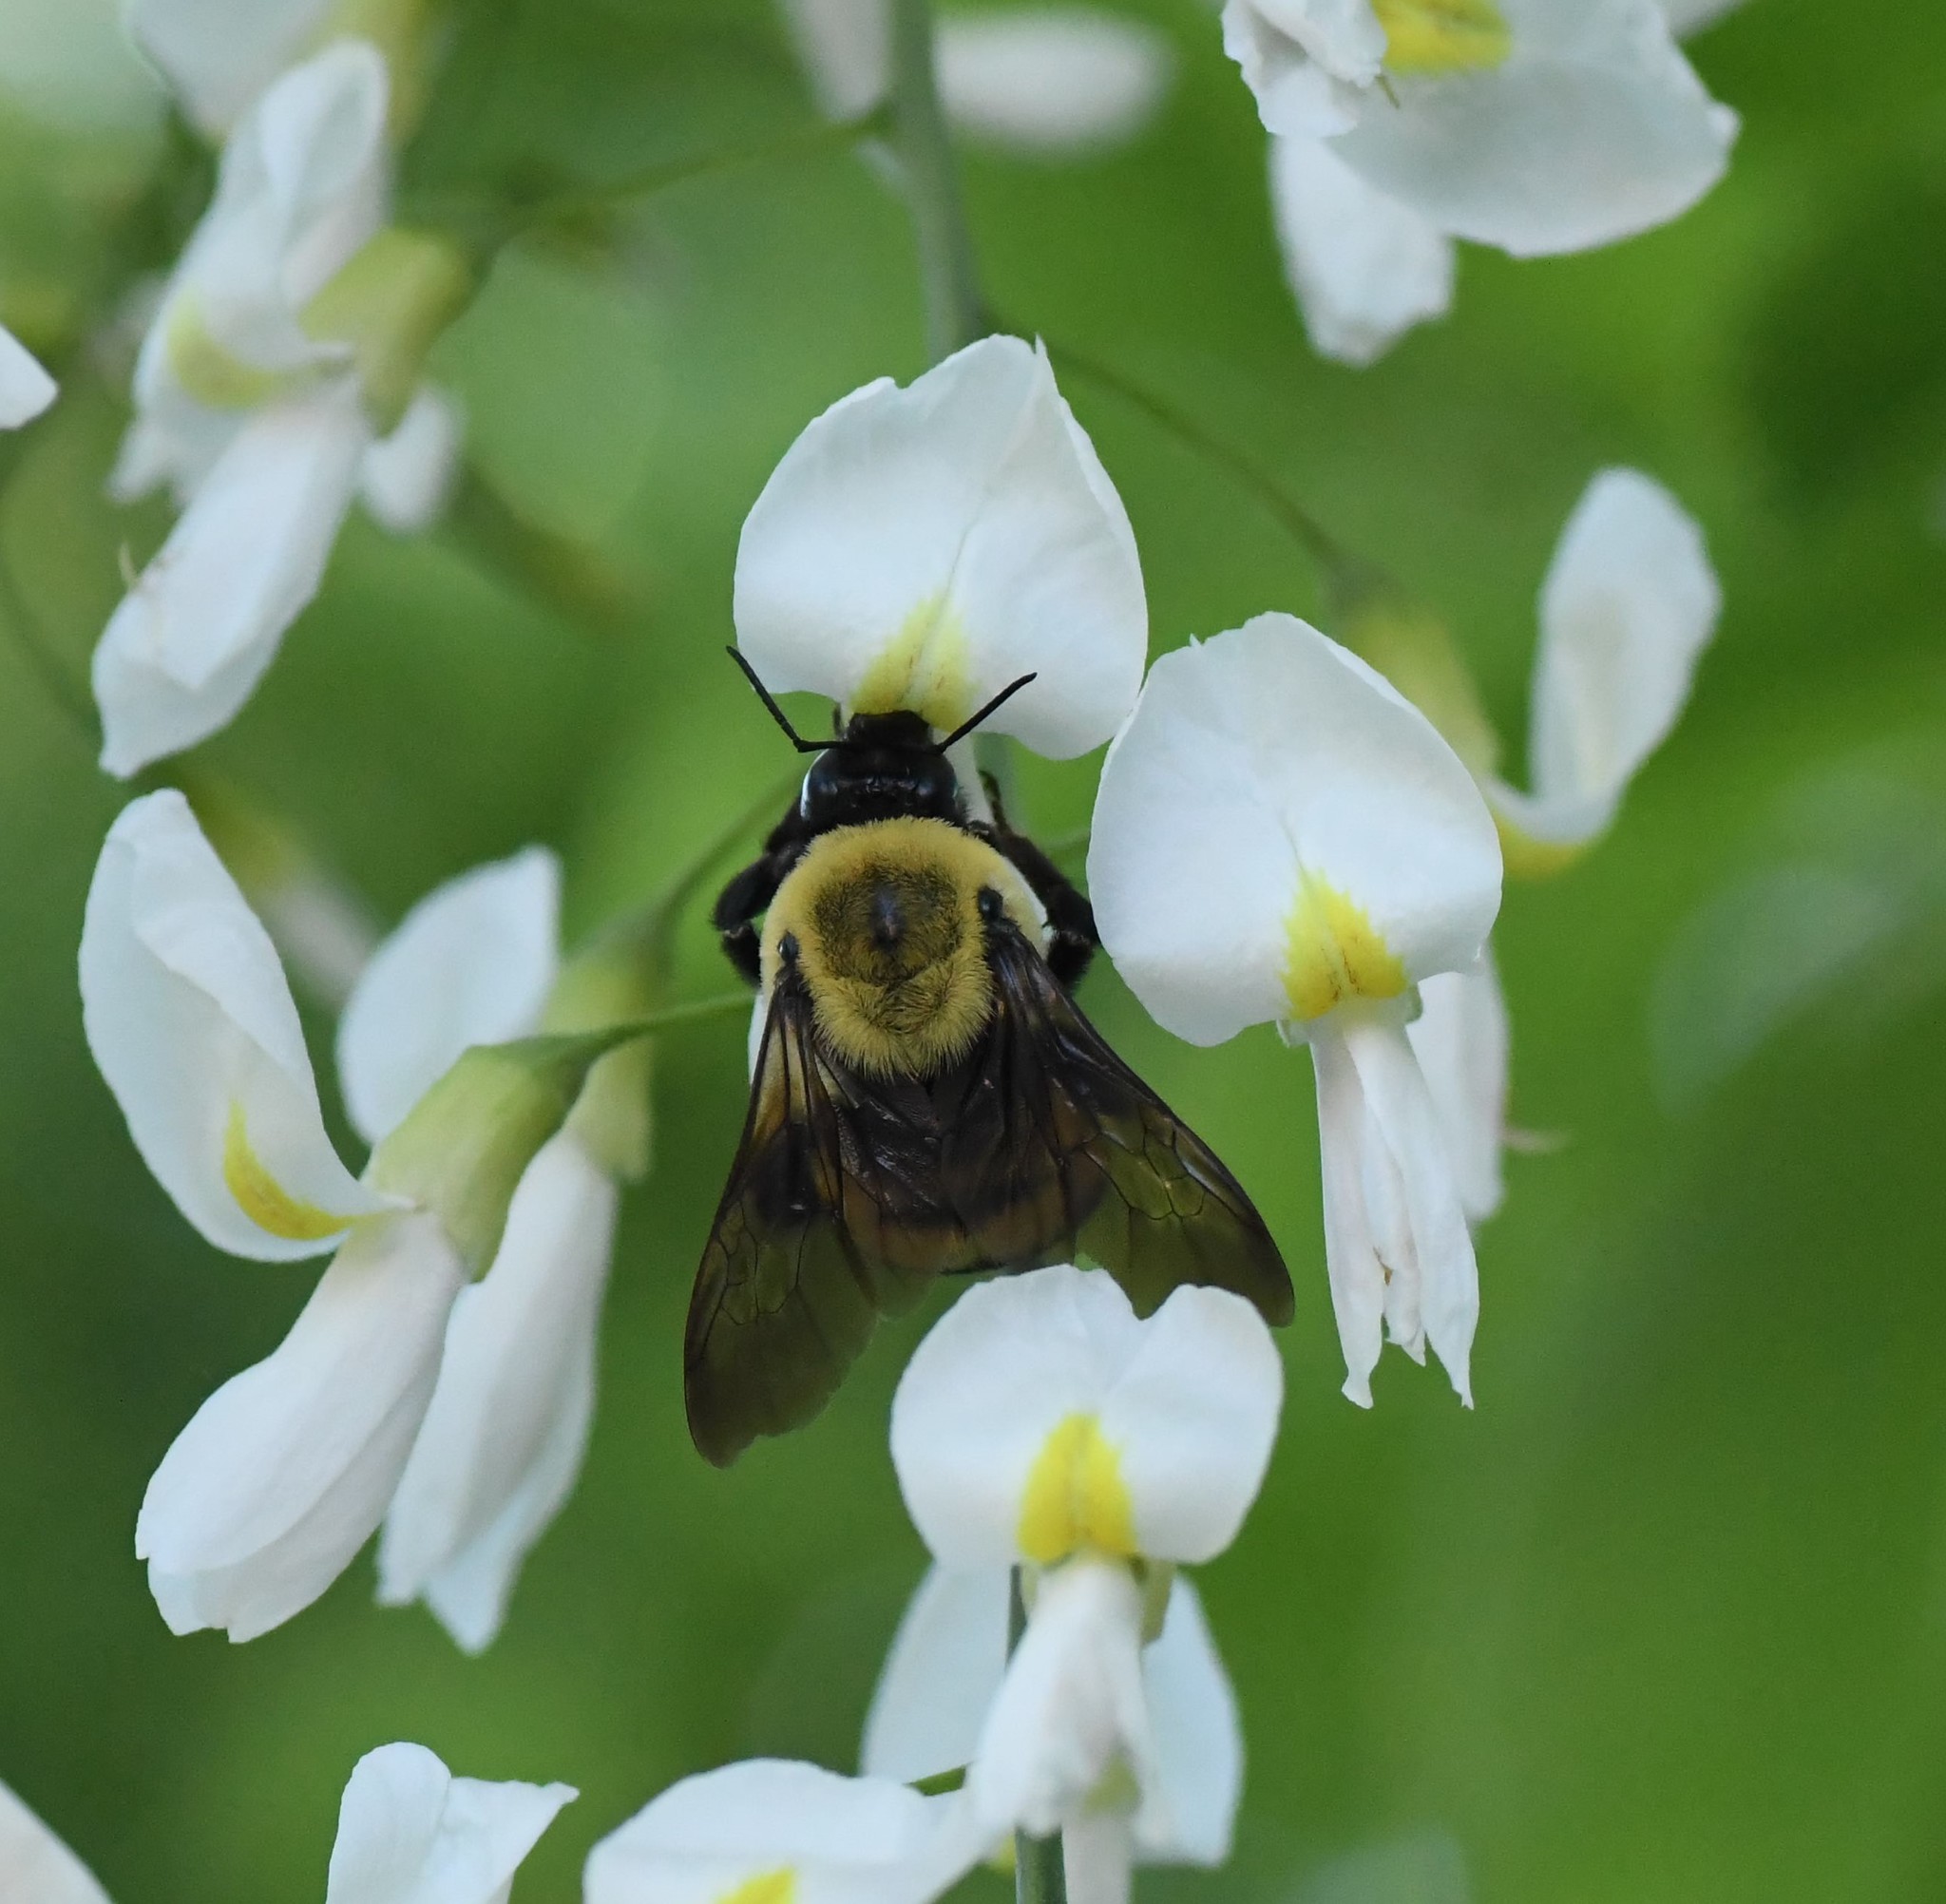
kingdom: Animalia
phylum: Arthropoda
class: Insecta
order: Hymenoptera
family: Apidae
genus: Bombus
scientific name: Bombus griseocollis
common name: Brown-belted bumble bee
